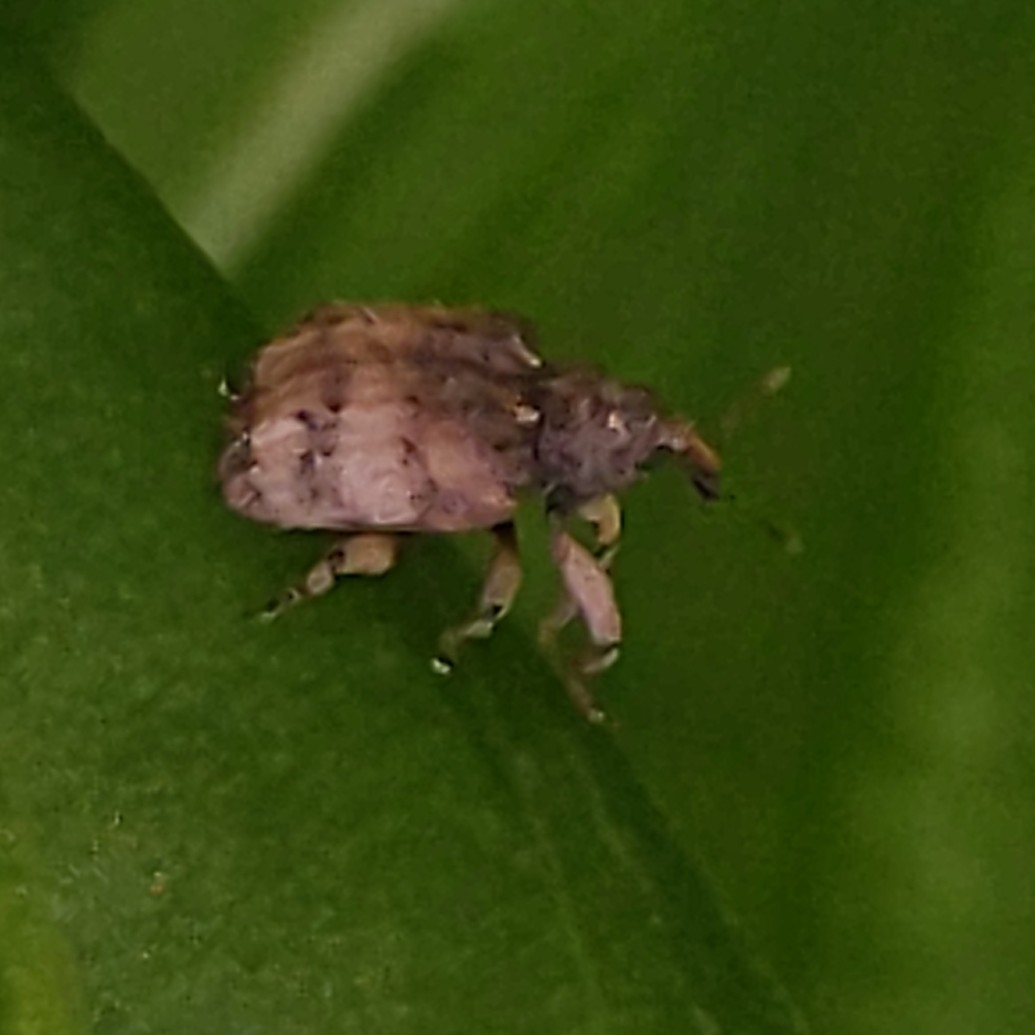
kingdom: Animalia
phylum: Arthropoda
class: Insecta
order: Coleoptera
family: Curculionidae
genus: Phyrdenus
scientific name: Phyrdenus divergens
